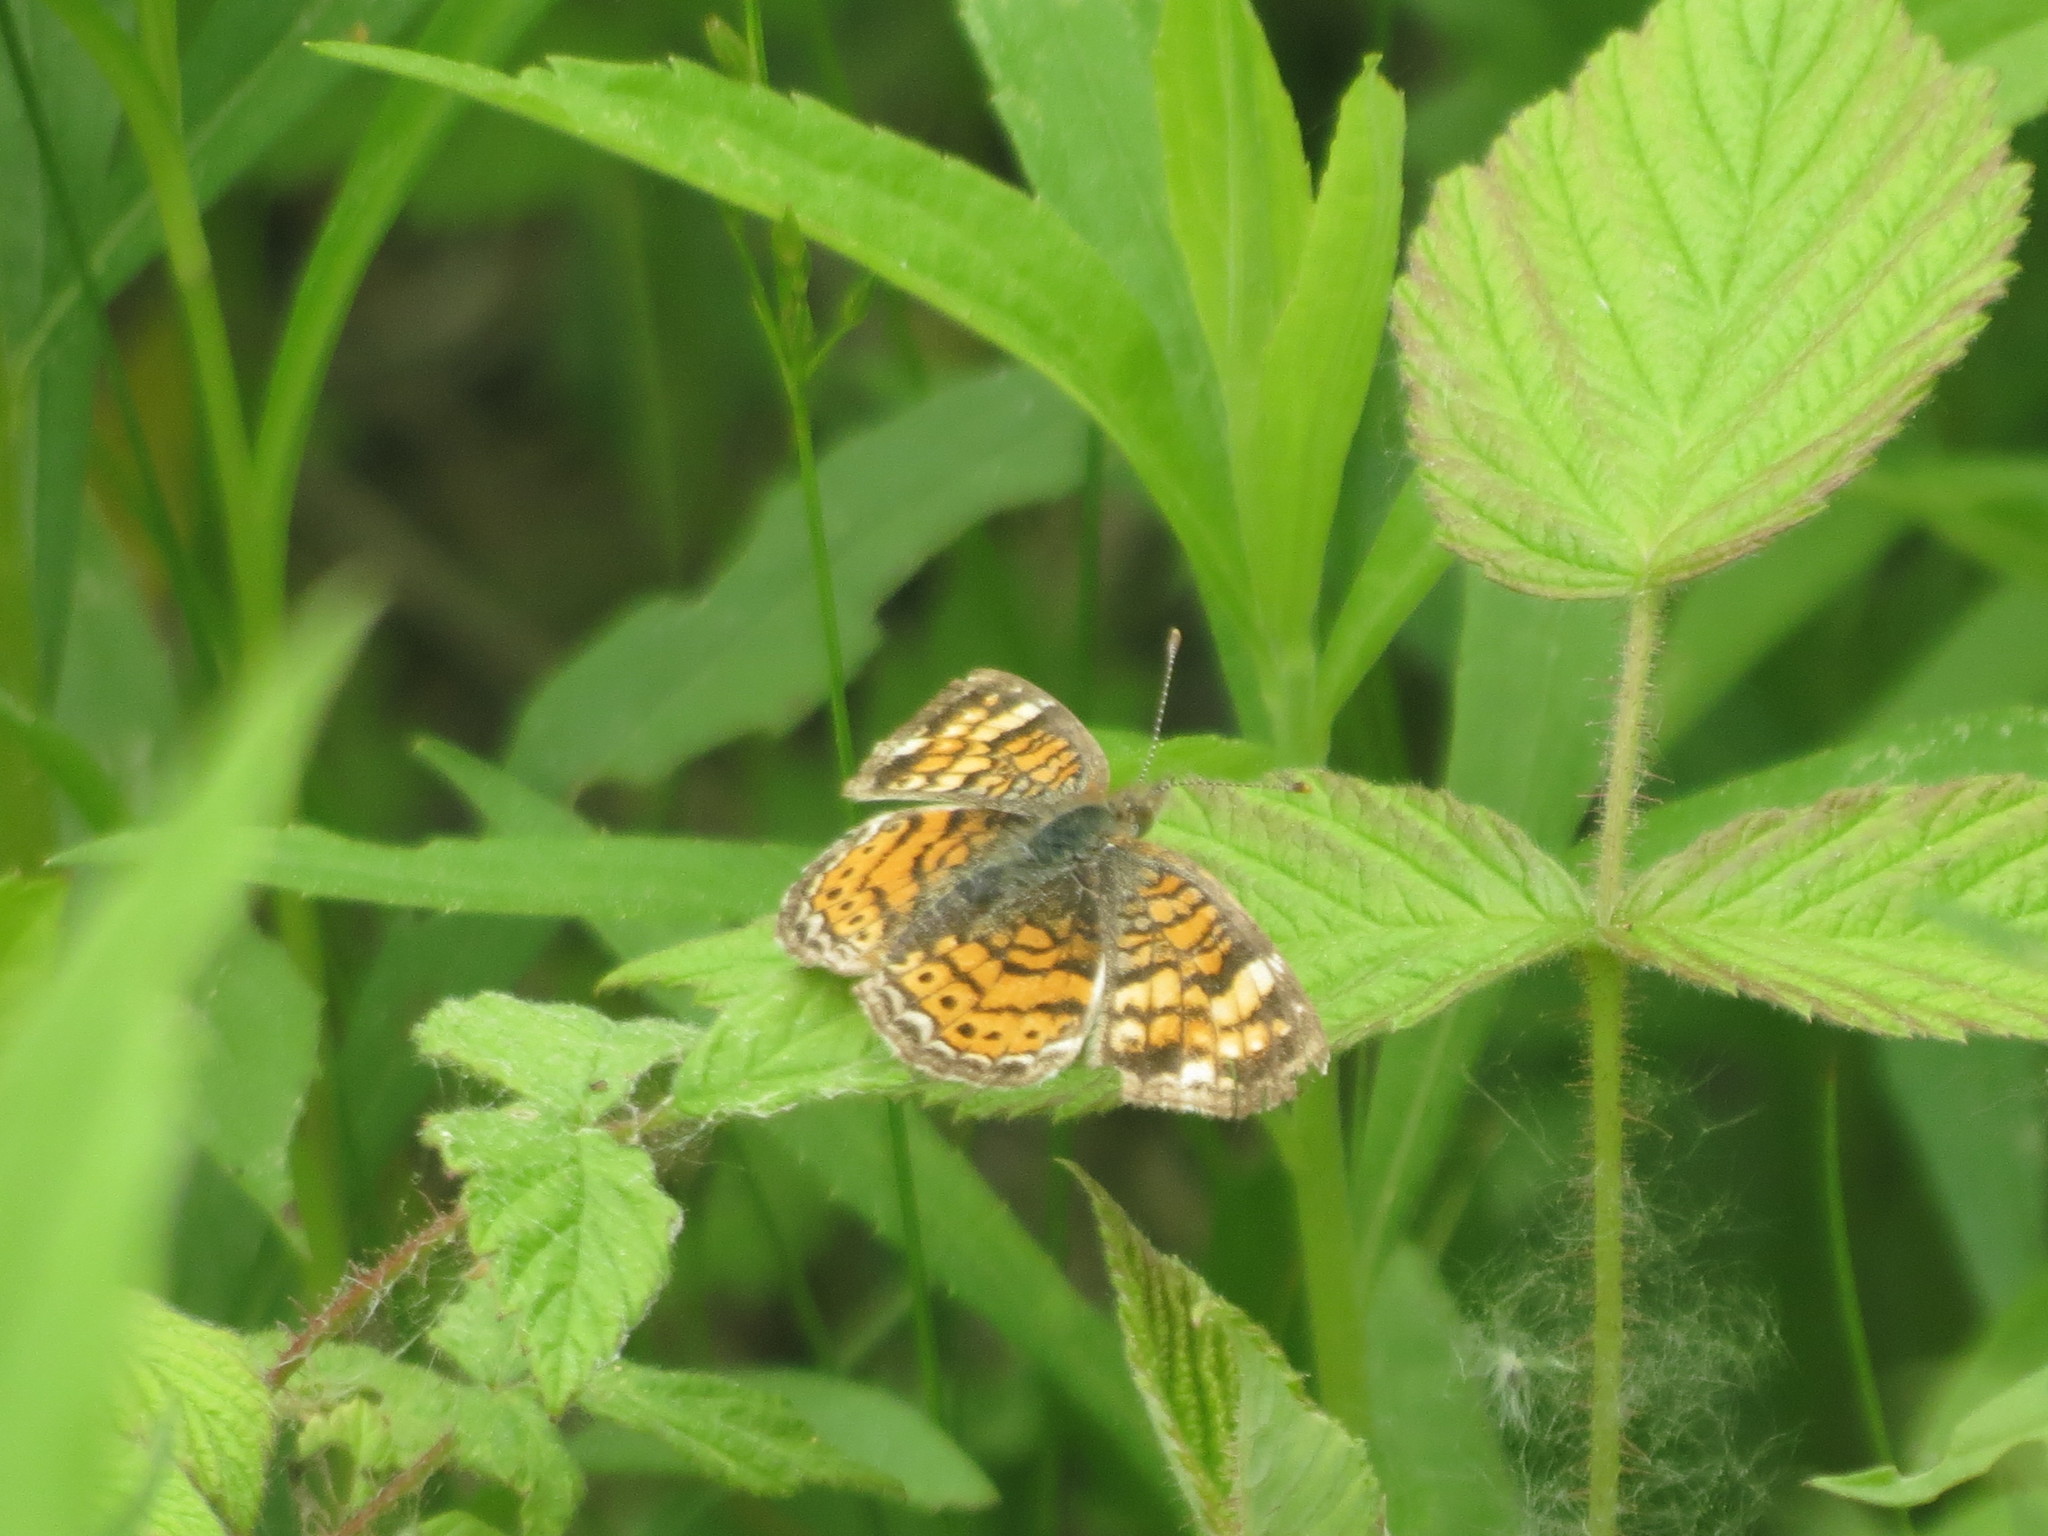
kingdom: Animalia
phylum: Arthropoda
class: Insecta
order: Lepidoptera
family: Nymphalidae
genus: Phyciodes
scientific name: Phyciodes tharos
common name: Pearl crescent
